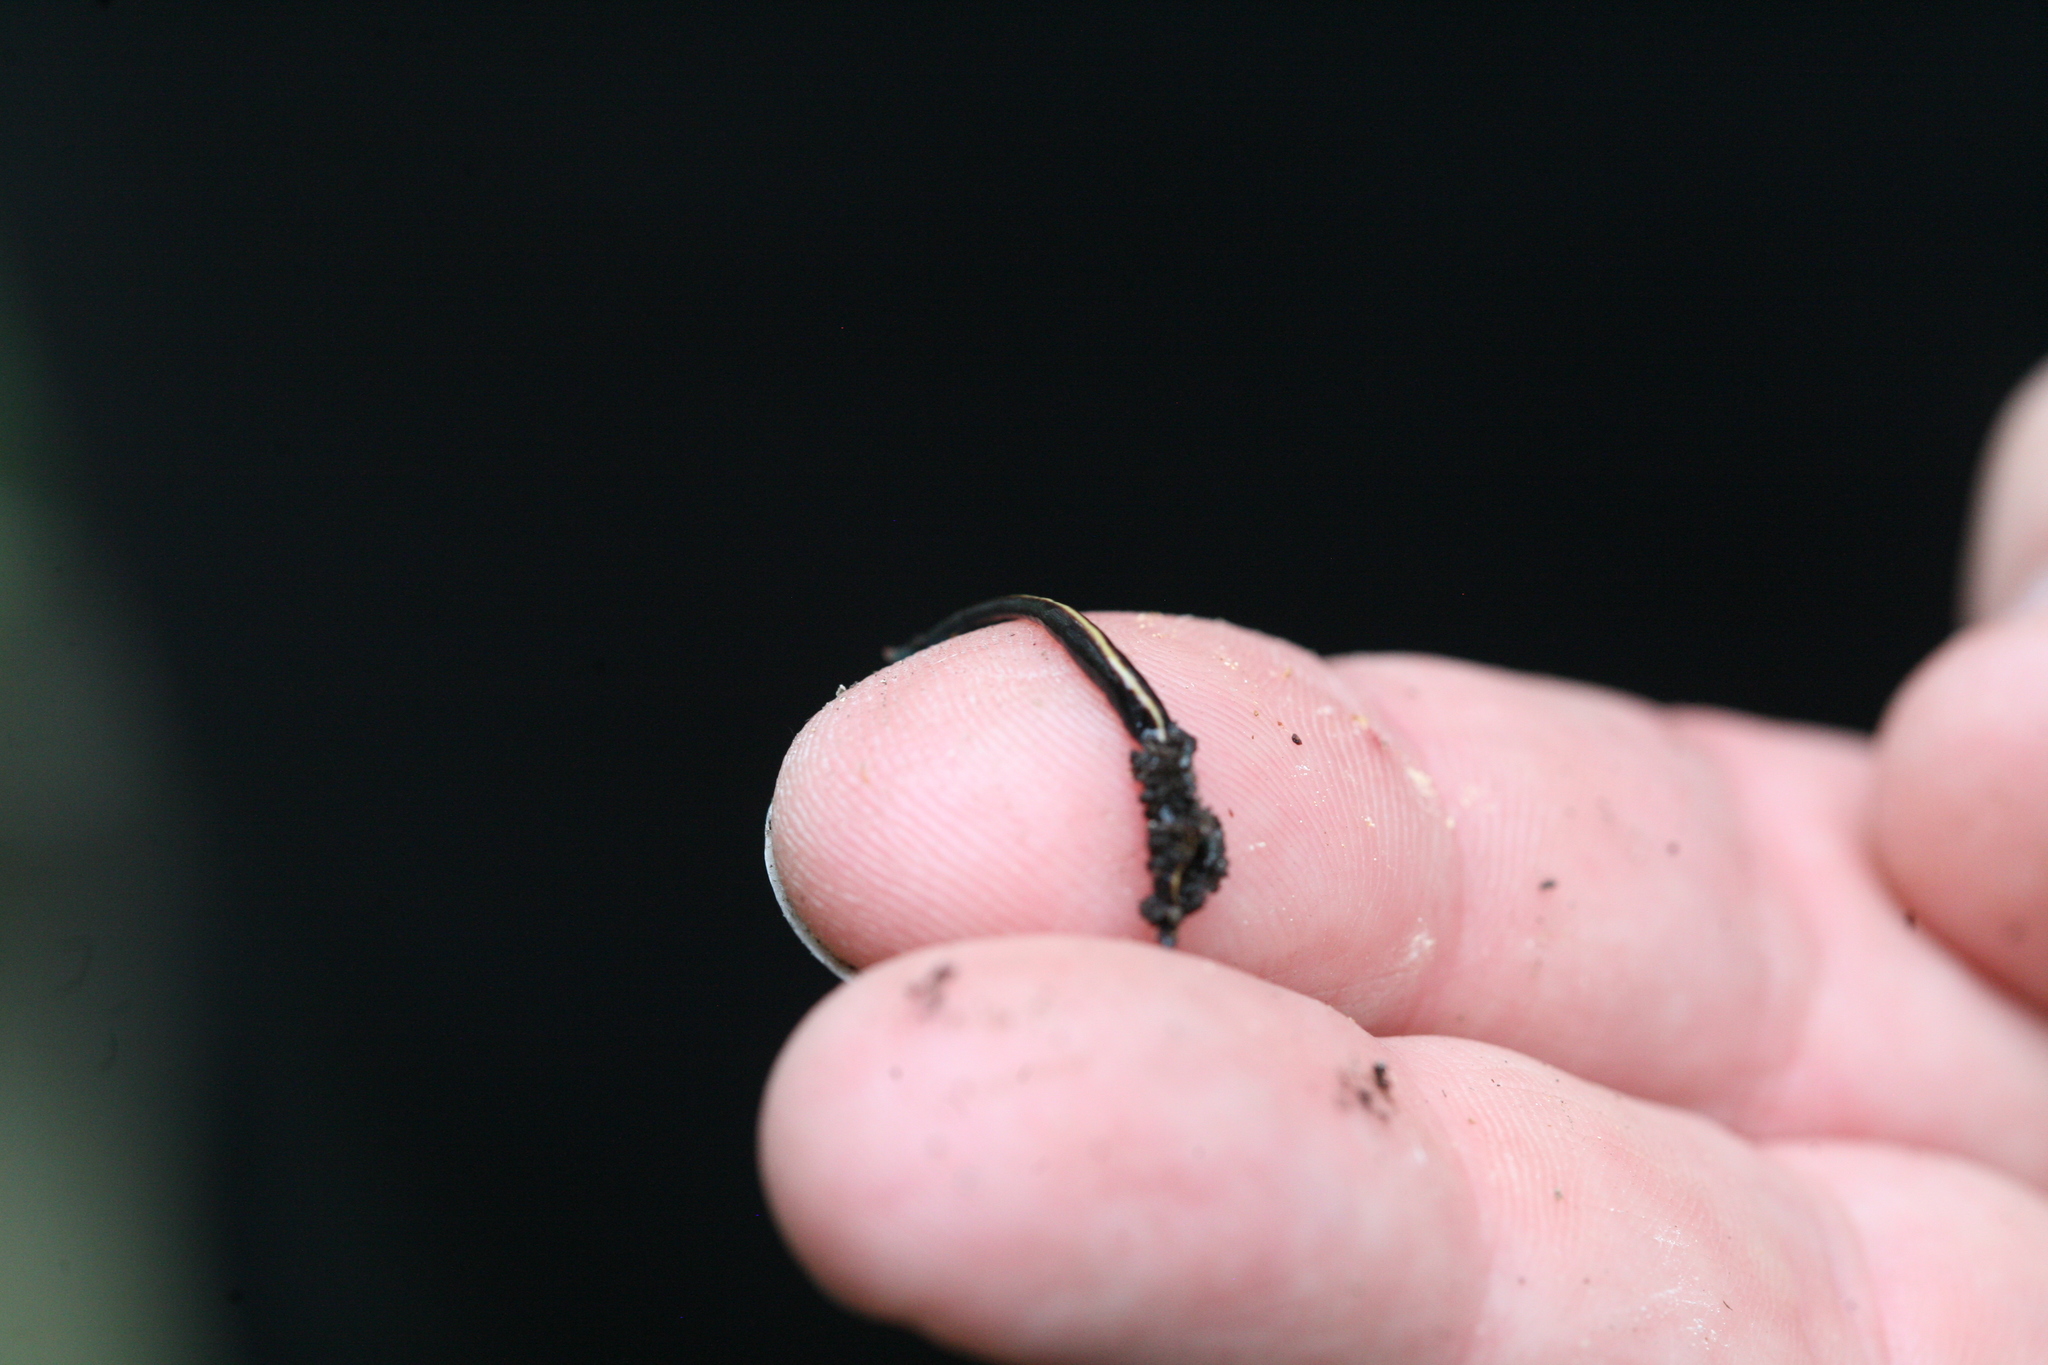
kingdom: Animalia
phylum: Platyhelminthes
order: Tricladida
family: Geoplanidae
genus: Caenoplana
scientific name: Caenoplana coerulea
